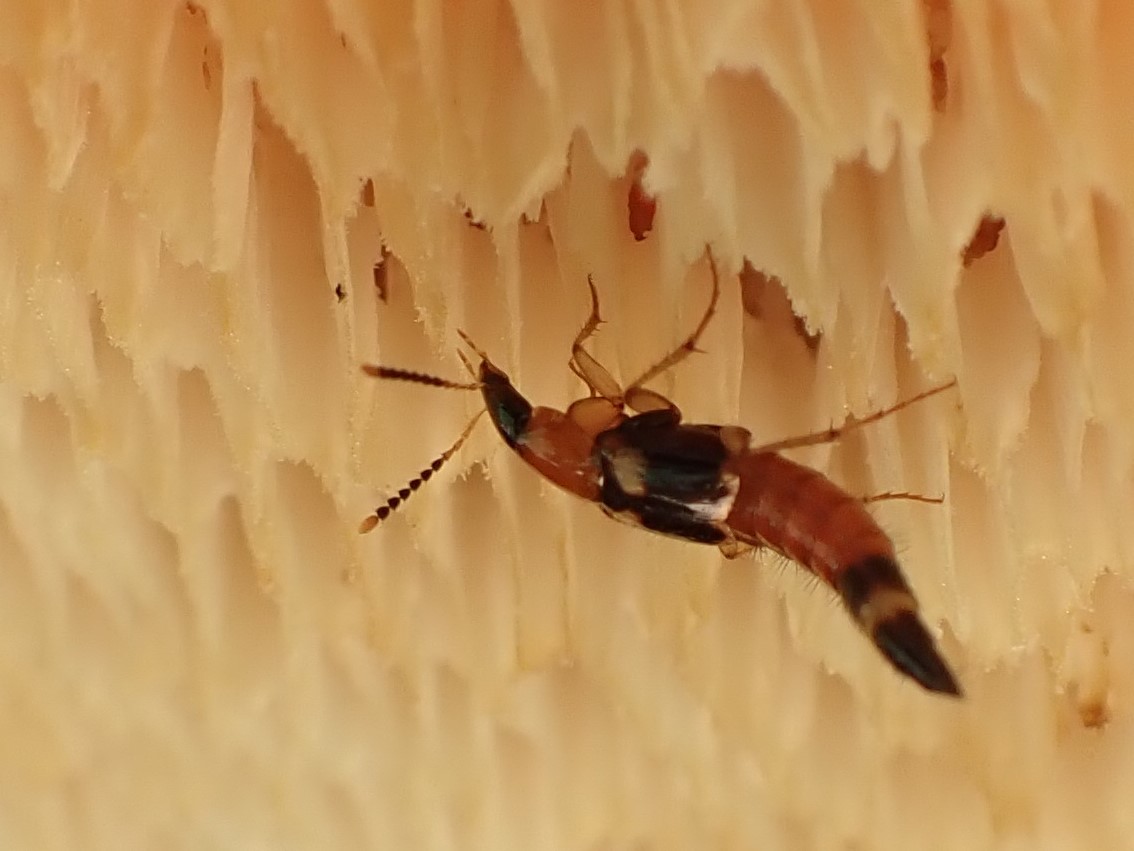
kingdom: Animalia
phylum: Arthropoda
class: Insecta
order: Coleoptera
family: Staphylinidae
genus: Bobitobus
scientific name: Bobitobus lunulatus
